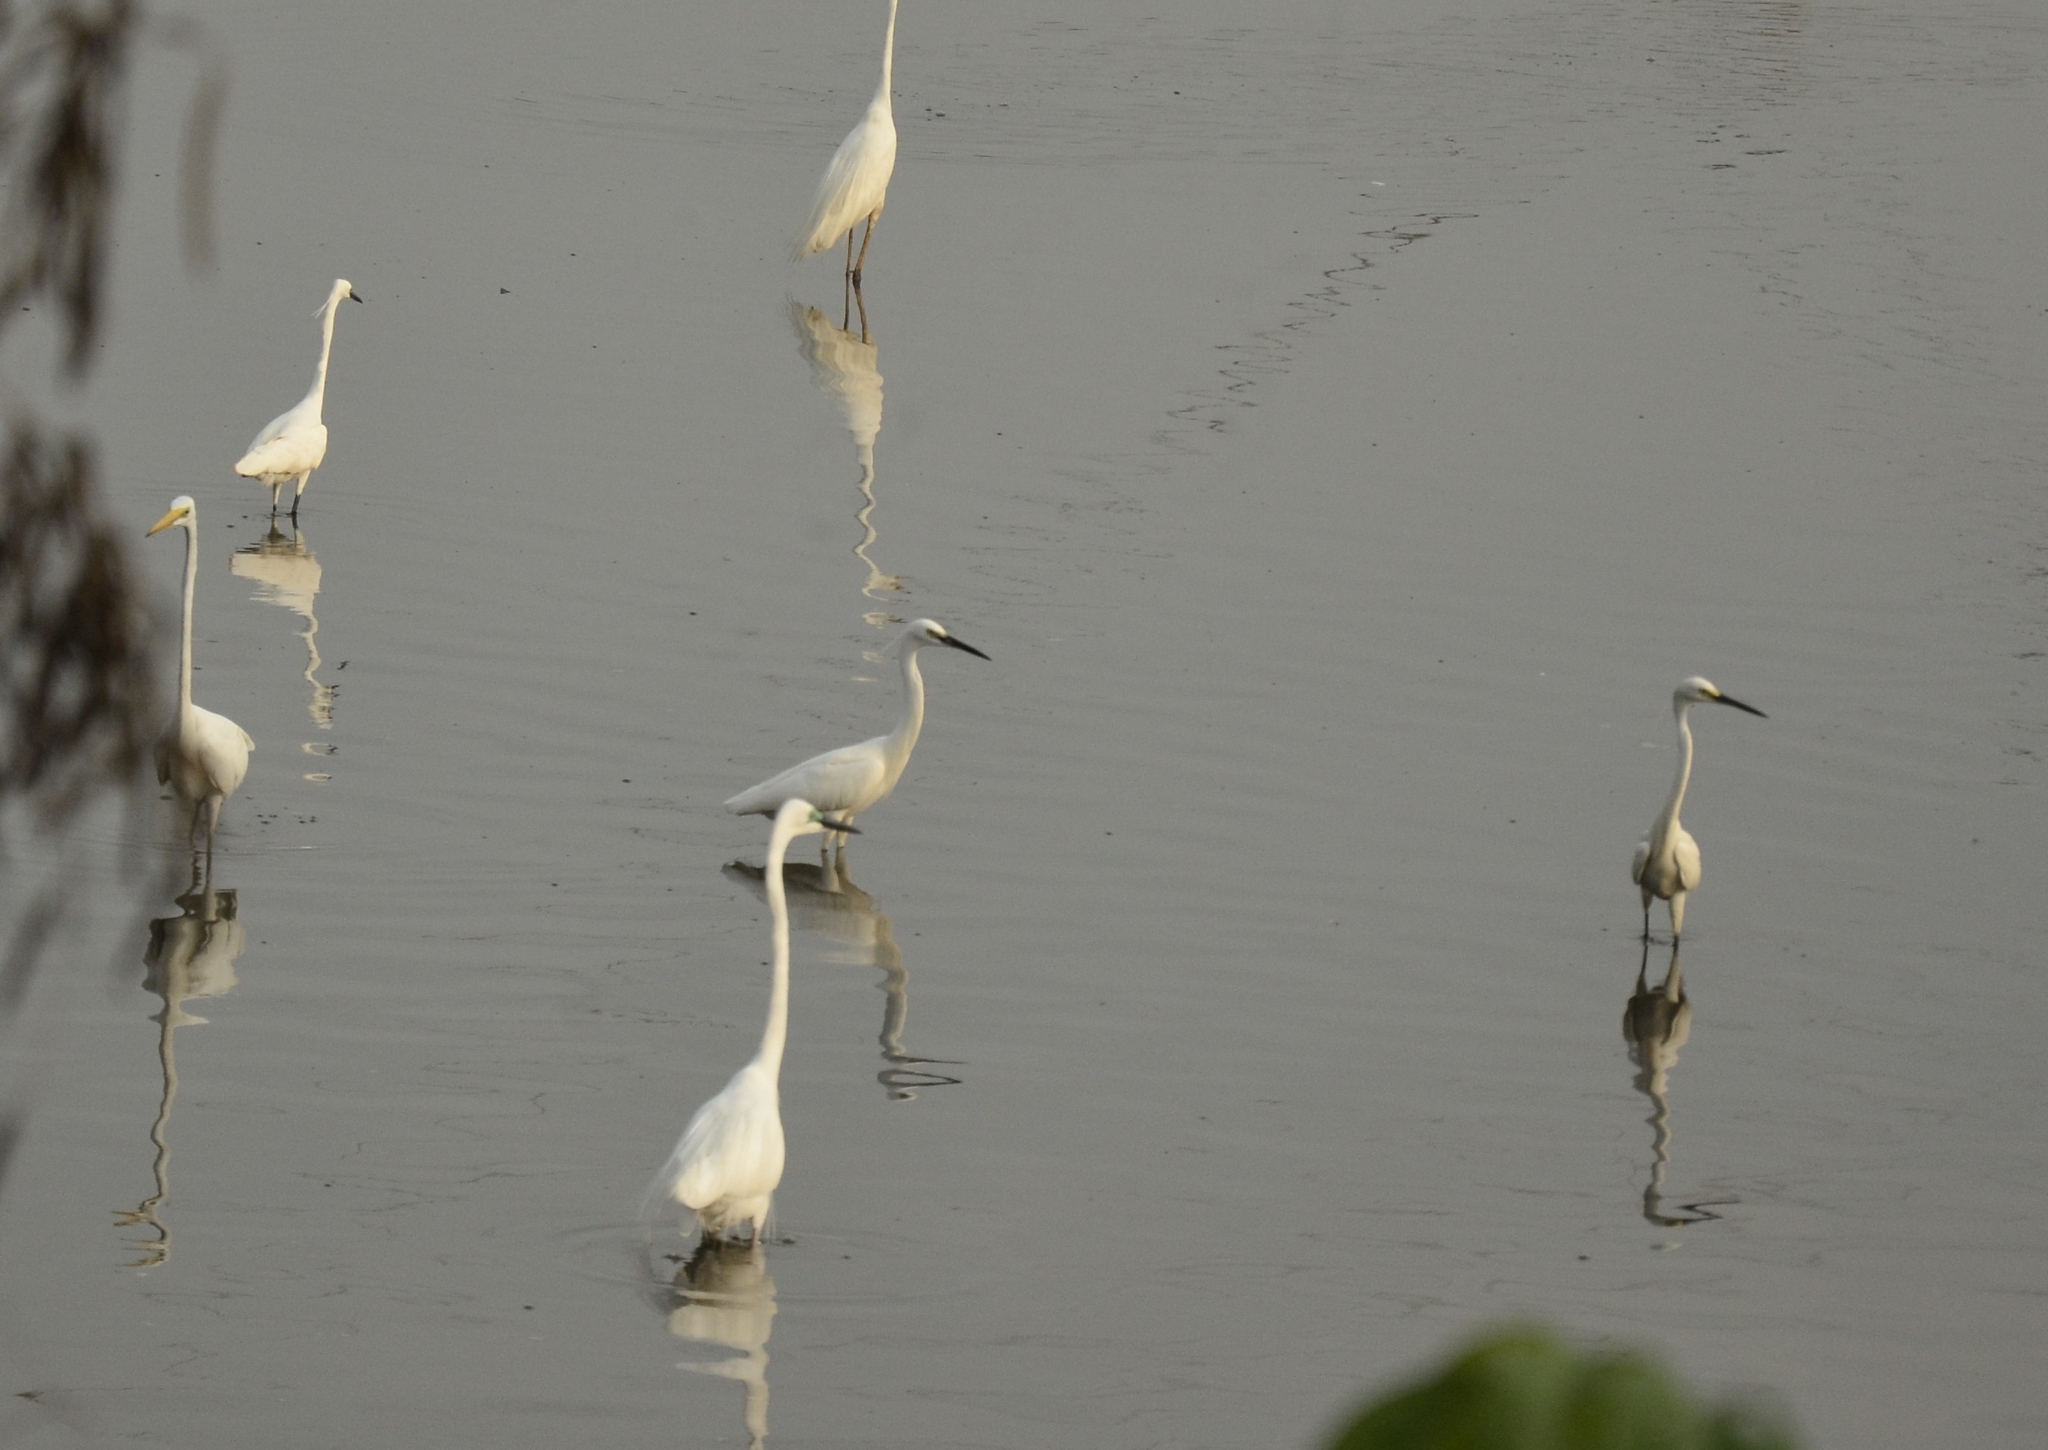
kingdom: Animalia
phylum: Chordata
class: Aves
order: Pelecaniformes
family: Ardeidae
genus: Egretta
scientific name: Egretta garzetta
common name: Little egret
